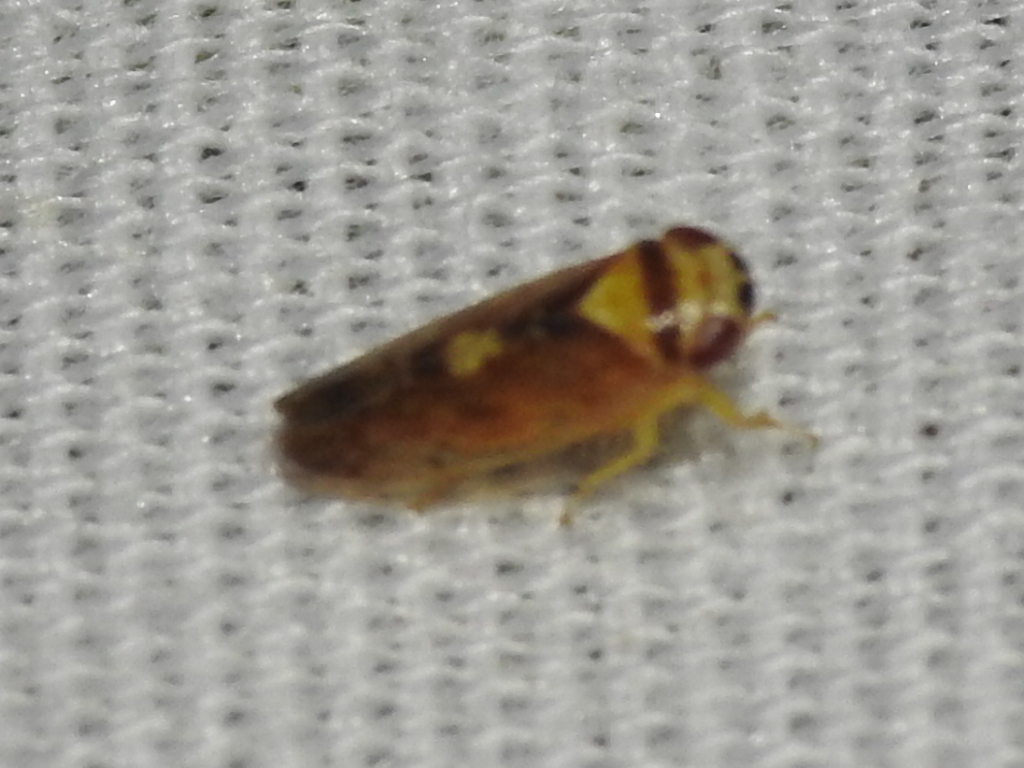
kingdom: Animalia
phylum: Arthropoda
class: Insecta
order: Hemiptera
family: Cicadellidae
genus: Eutettix
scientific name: Eutettix pictus
